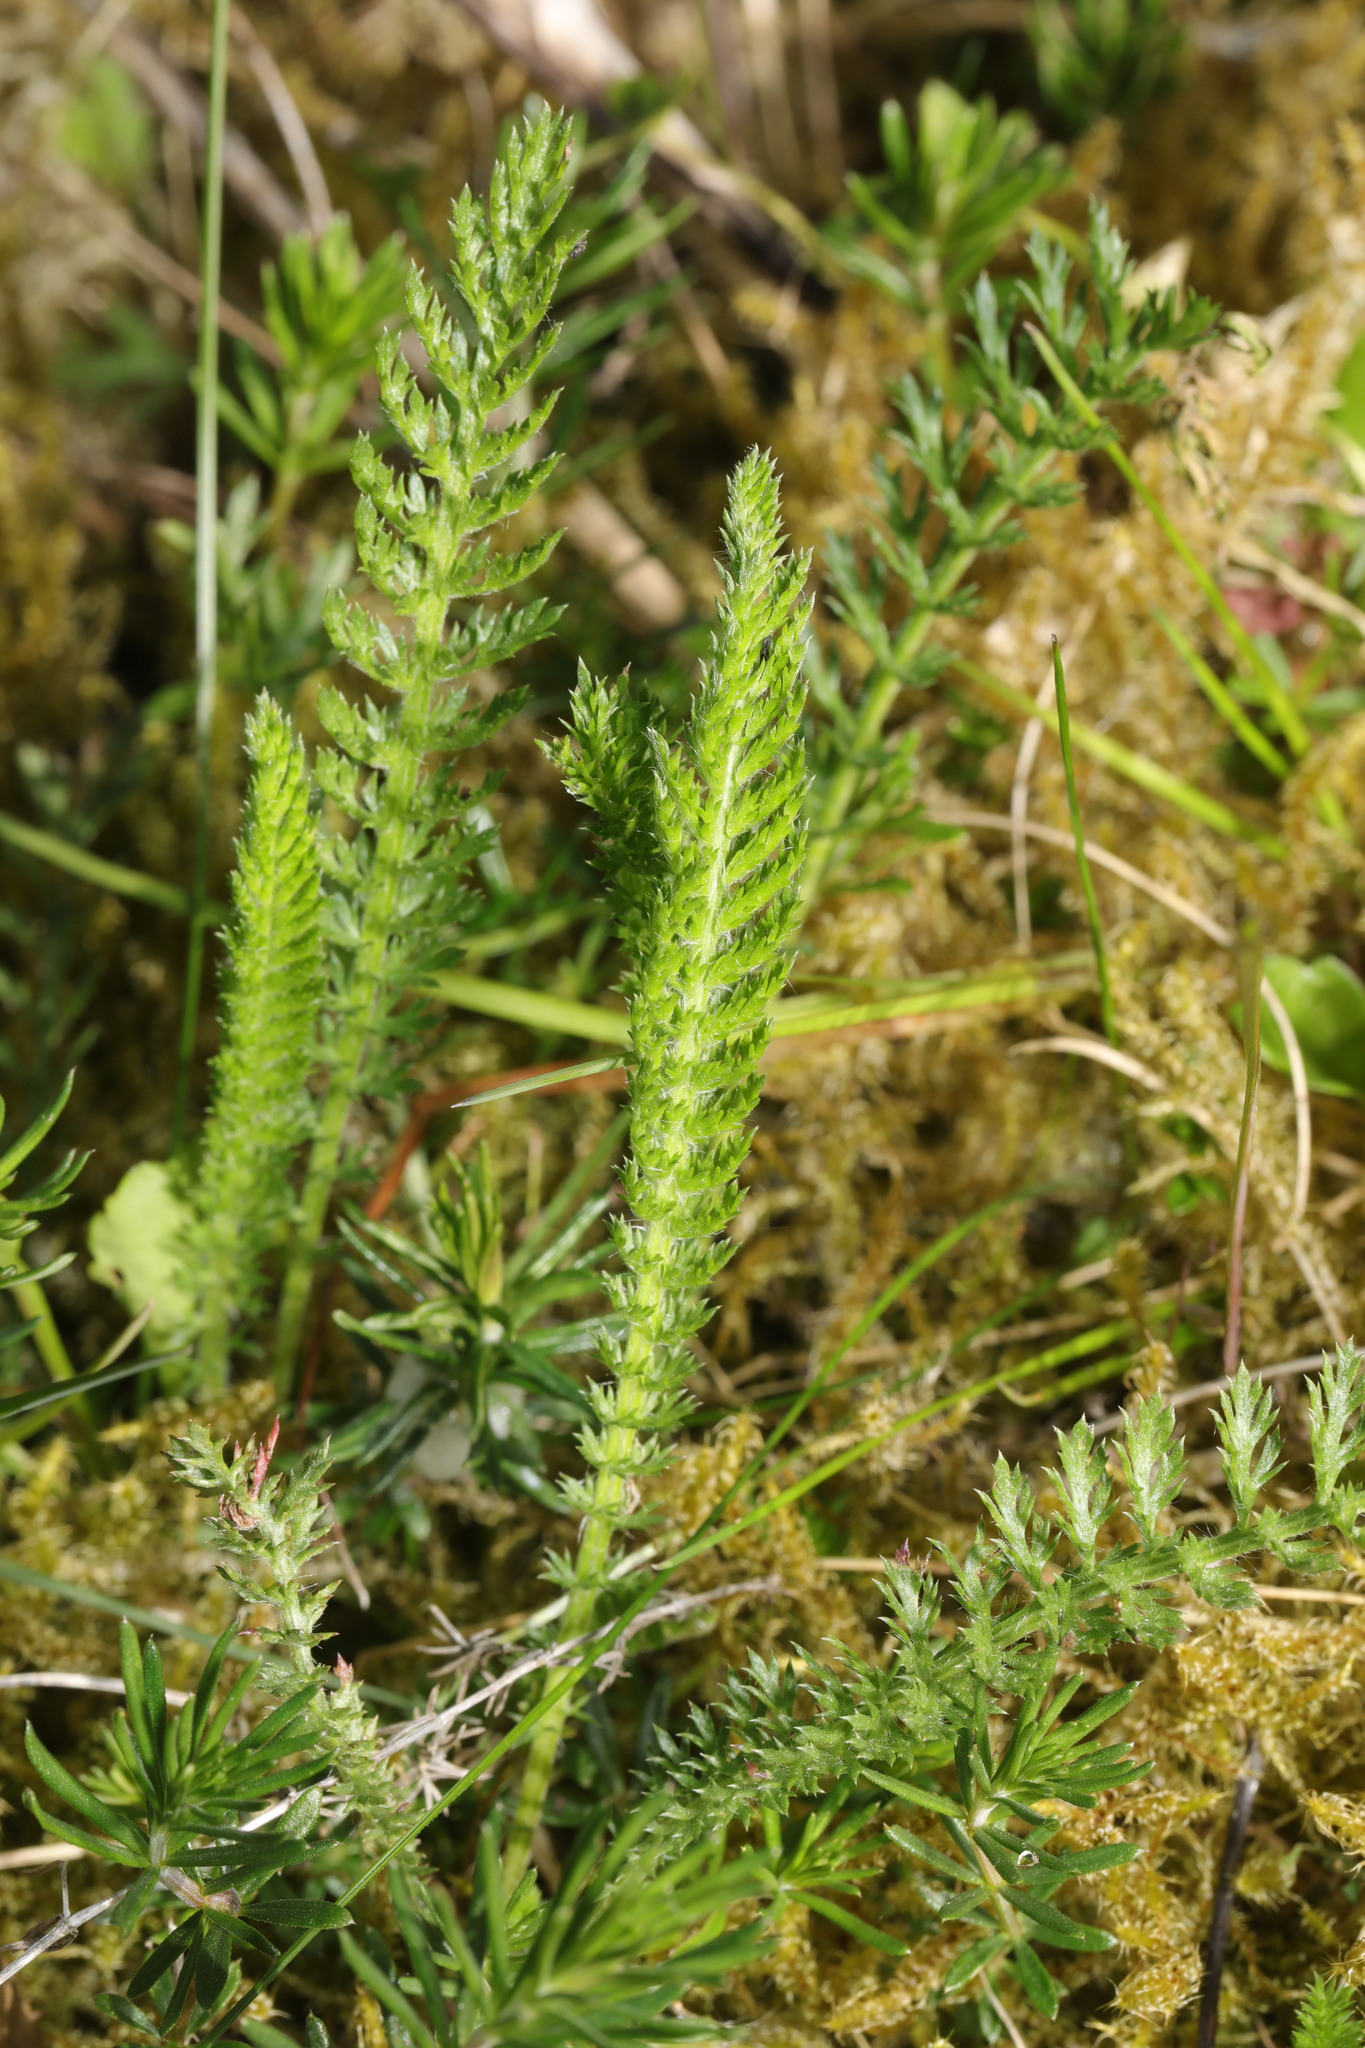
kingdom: Plantae
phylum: Tracheophyta
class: Magnoliopsida
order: Asterales
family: Asteraceae
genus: Achillea
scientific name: Achillea millefolium
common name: Yarrow
